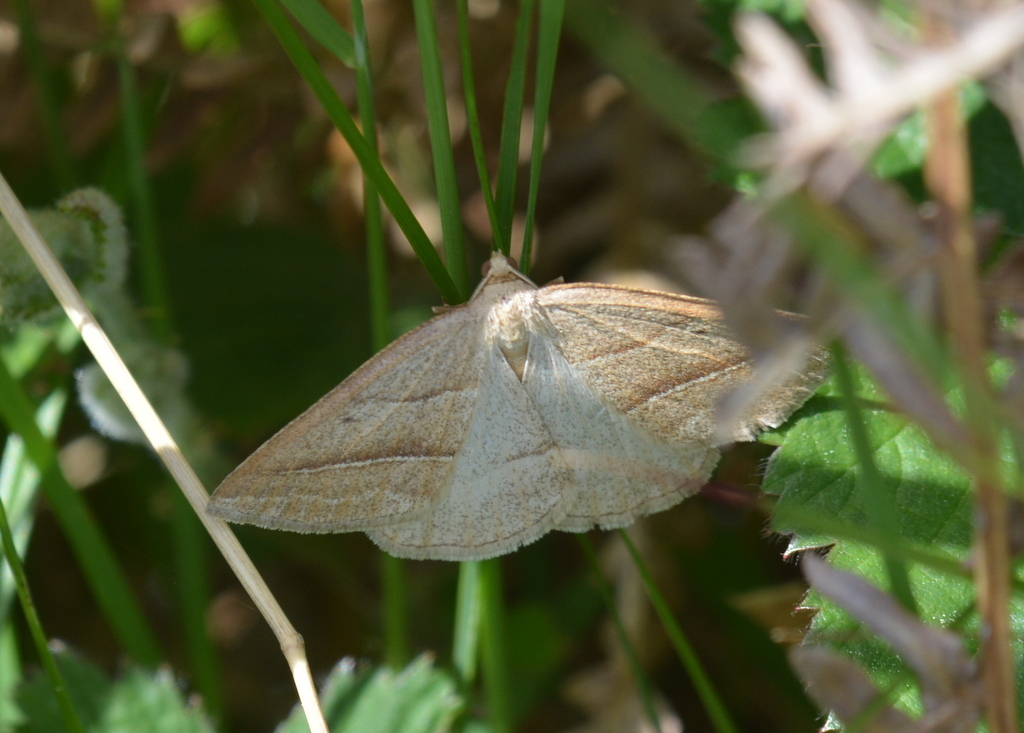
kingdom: Animalia
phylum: Arthropoda
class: Insecta
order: Lepidoptera
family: Pterophoridae
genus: Pterophorus
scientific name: Pterophorus Petrophora chlorosata
